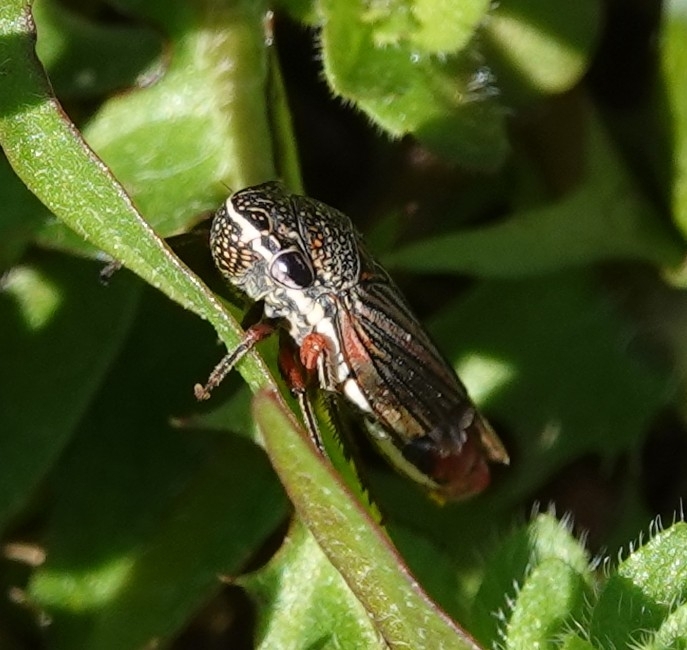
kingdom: Animalia
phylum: Arthropoda
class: Insecta
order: Hemiptera
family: Cicadellidae
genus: Cuerna
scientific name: Cuerna costalis
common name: Lateral-lined sharpshooter
